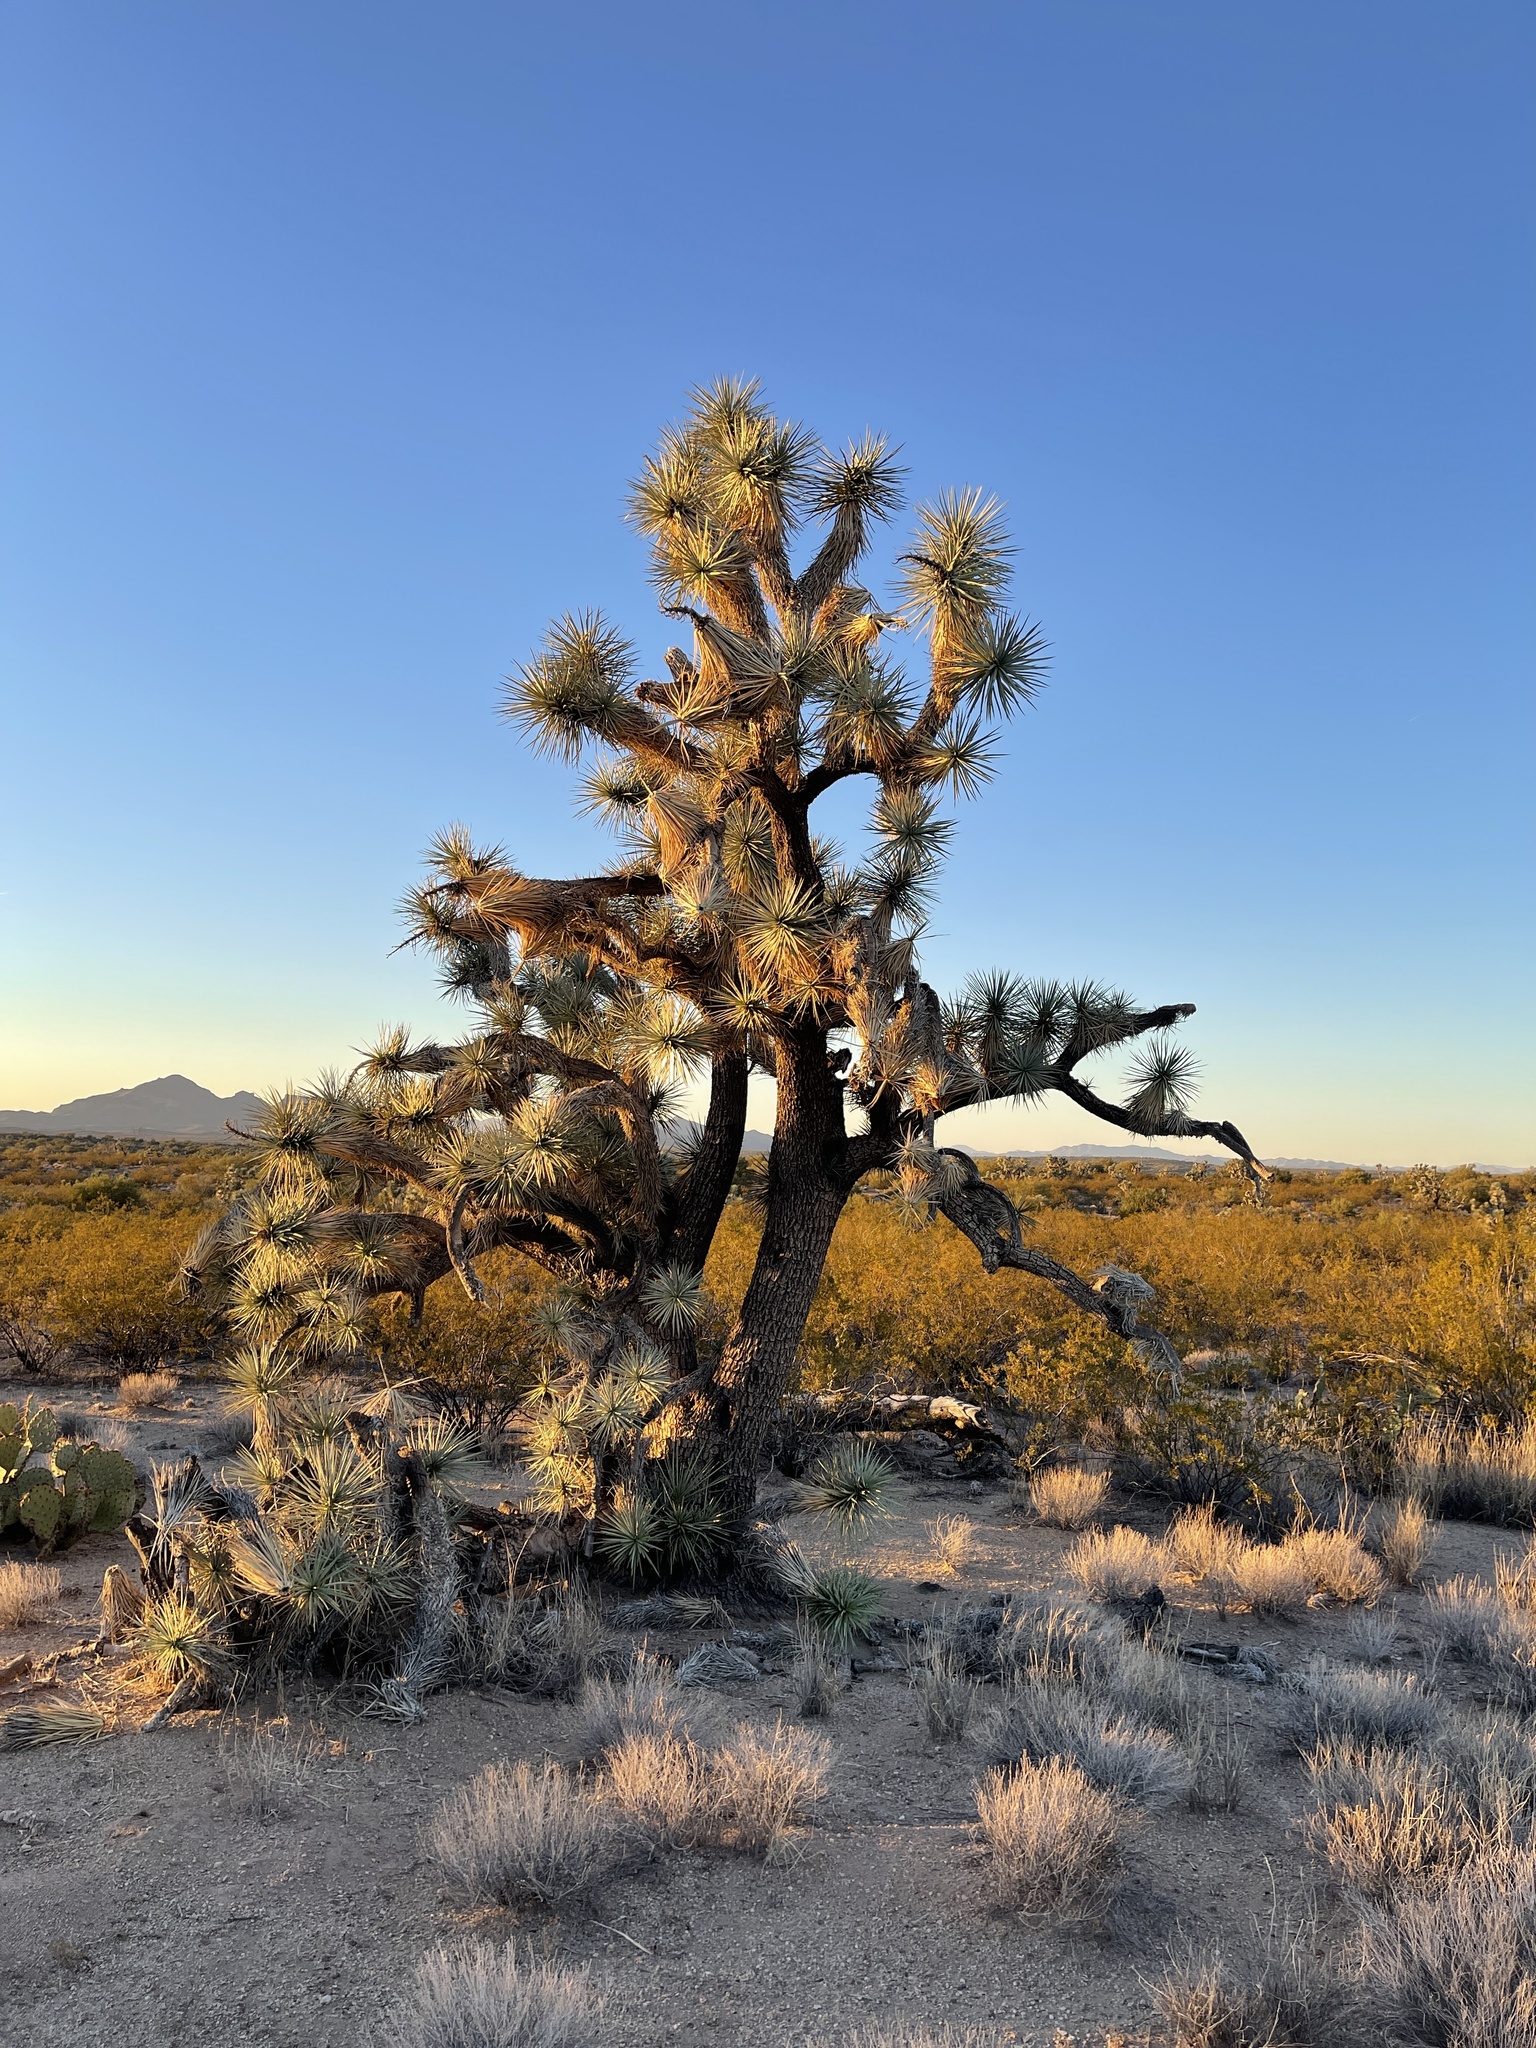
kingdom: Plantae
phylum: Tracheophyta
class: Liliopsida
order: Asparagales
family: Asparagaceae
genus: Yucca
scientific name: Yucca brevifolia
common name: Joshua tree
